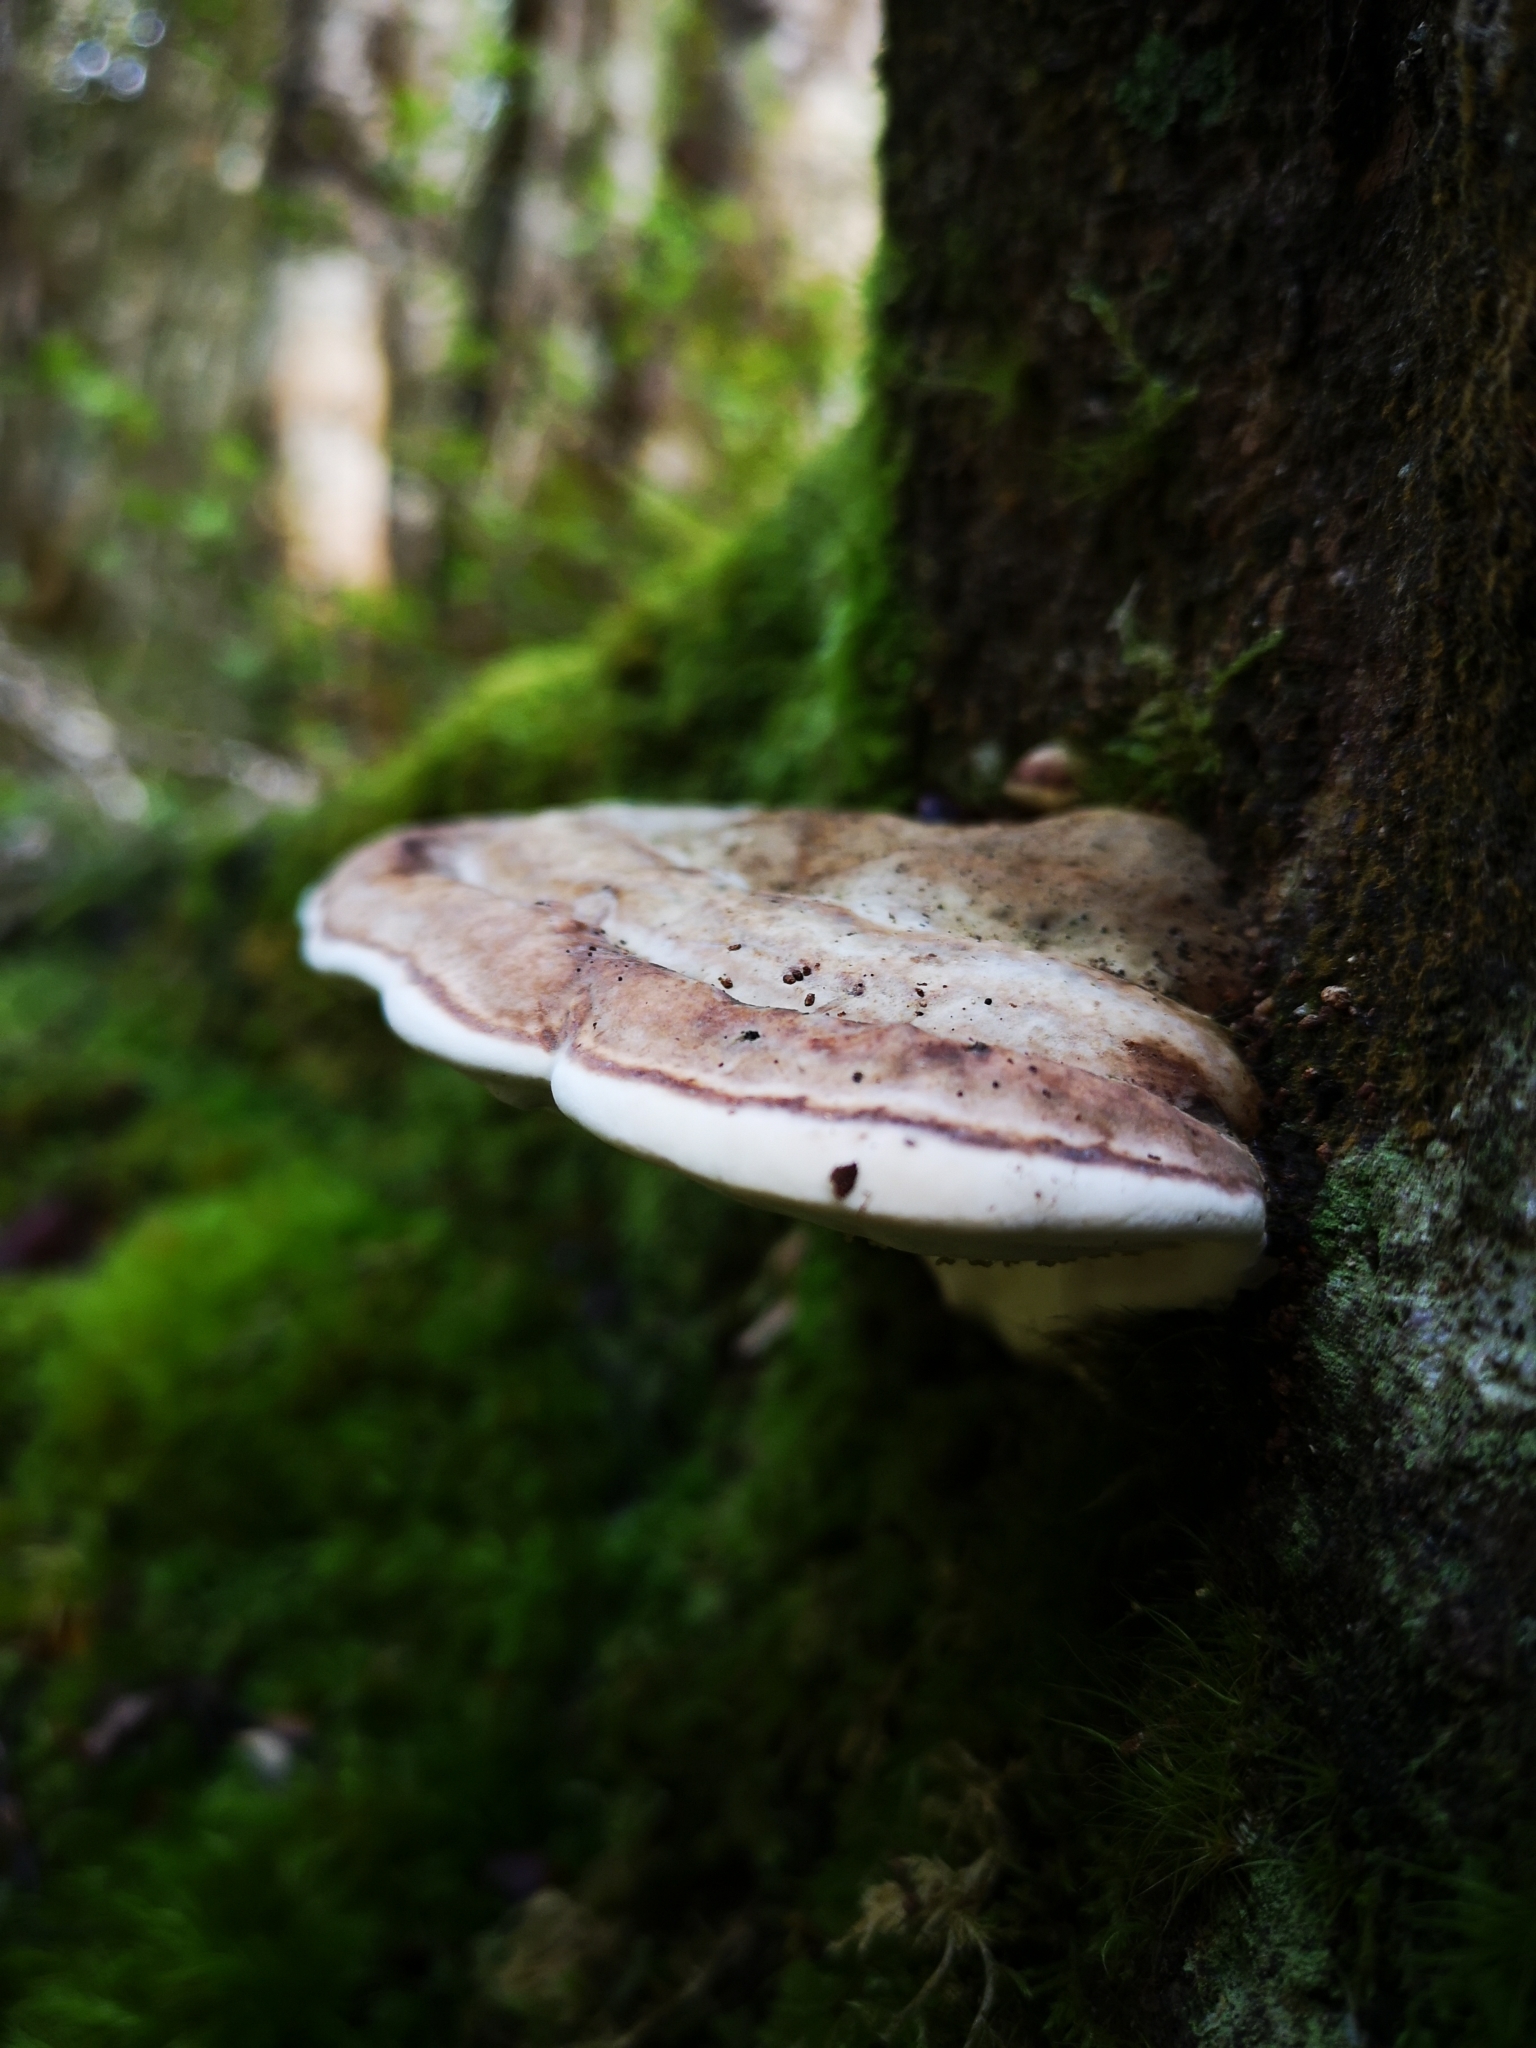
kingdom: Fungi
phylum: Basidiomycota
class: Agaricomycetes
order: Polyporales
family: Fomitopsidaceae
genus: Pilatoporus
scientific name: Pilatoporus hemitephrus
